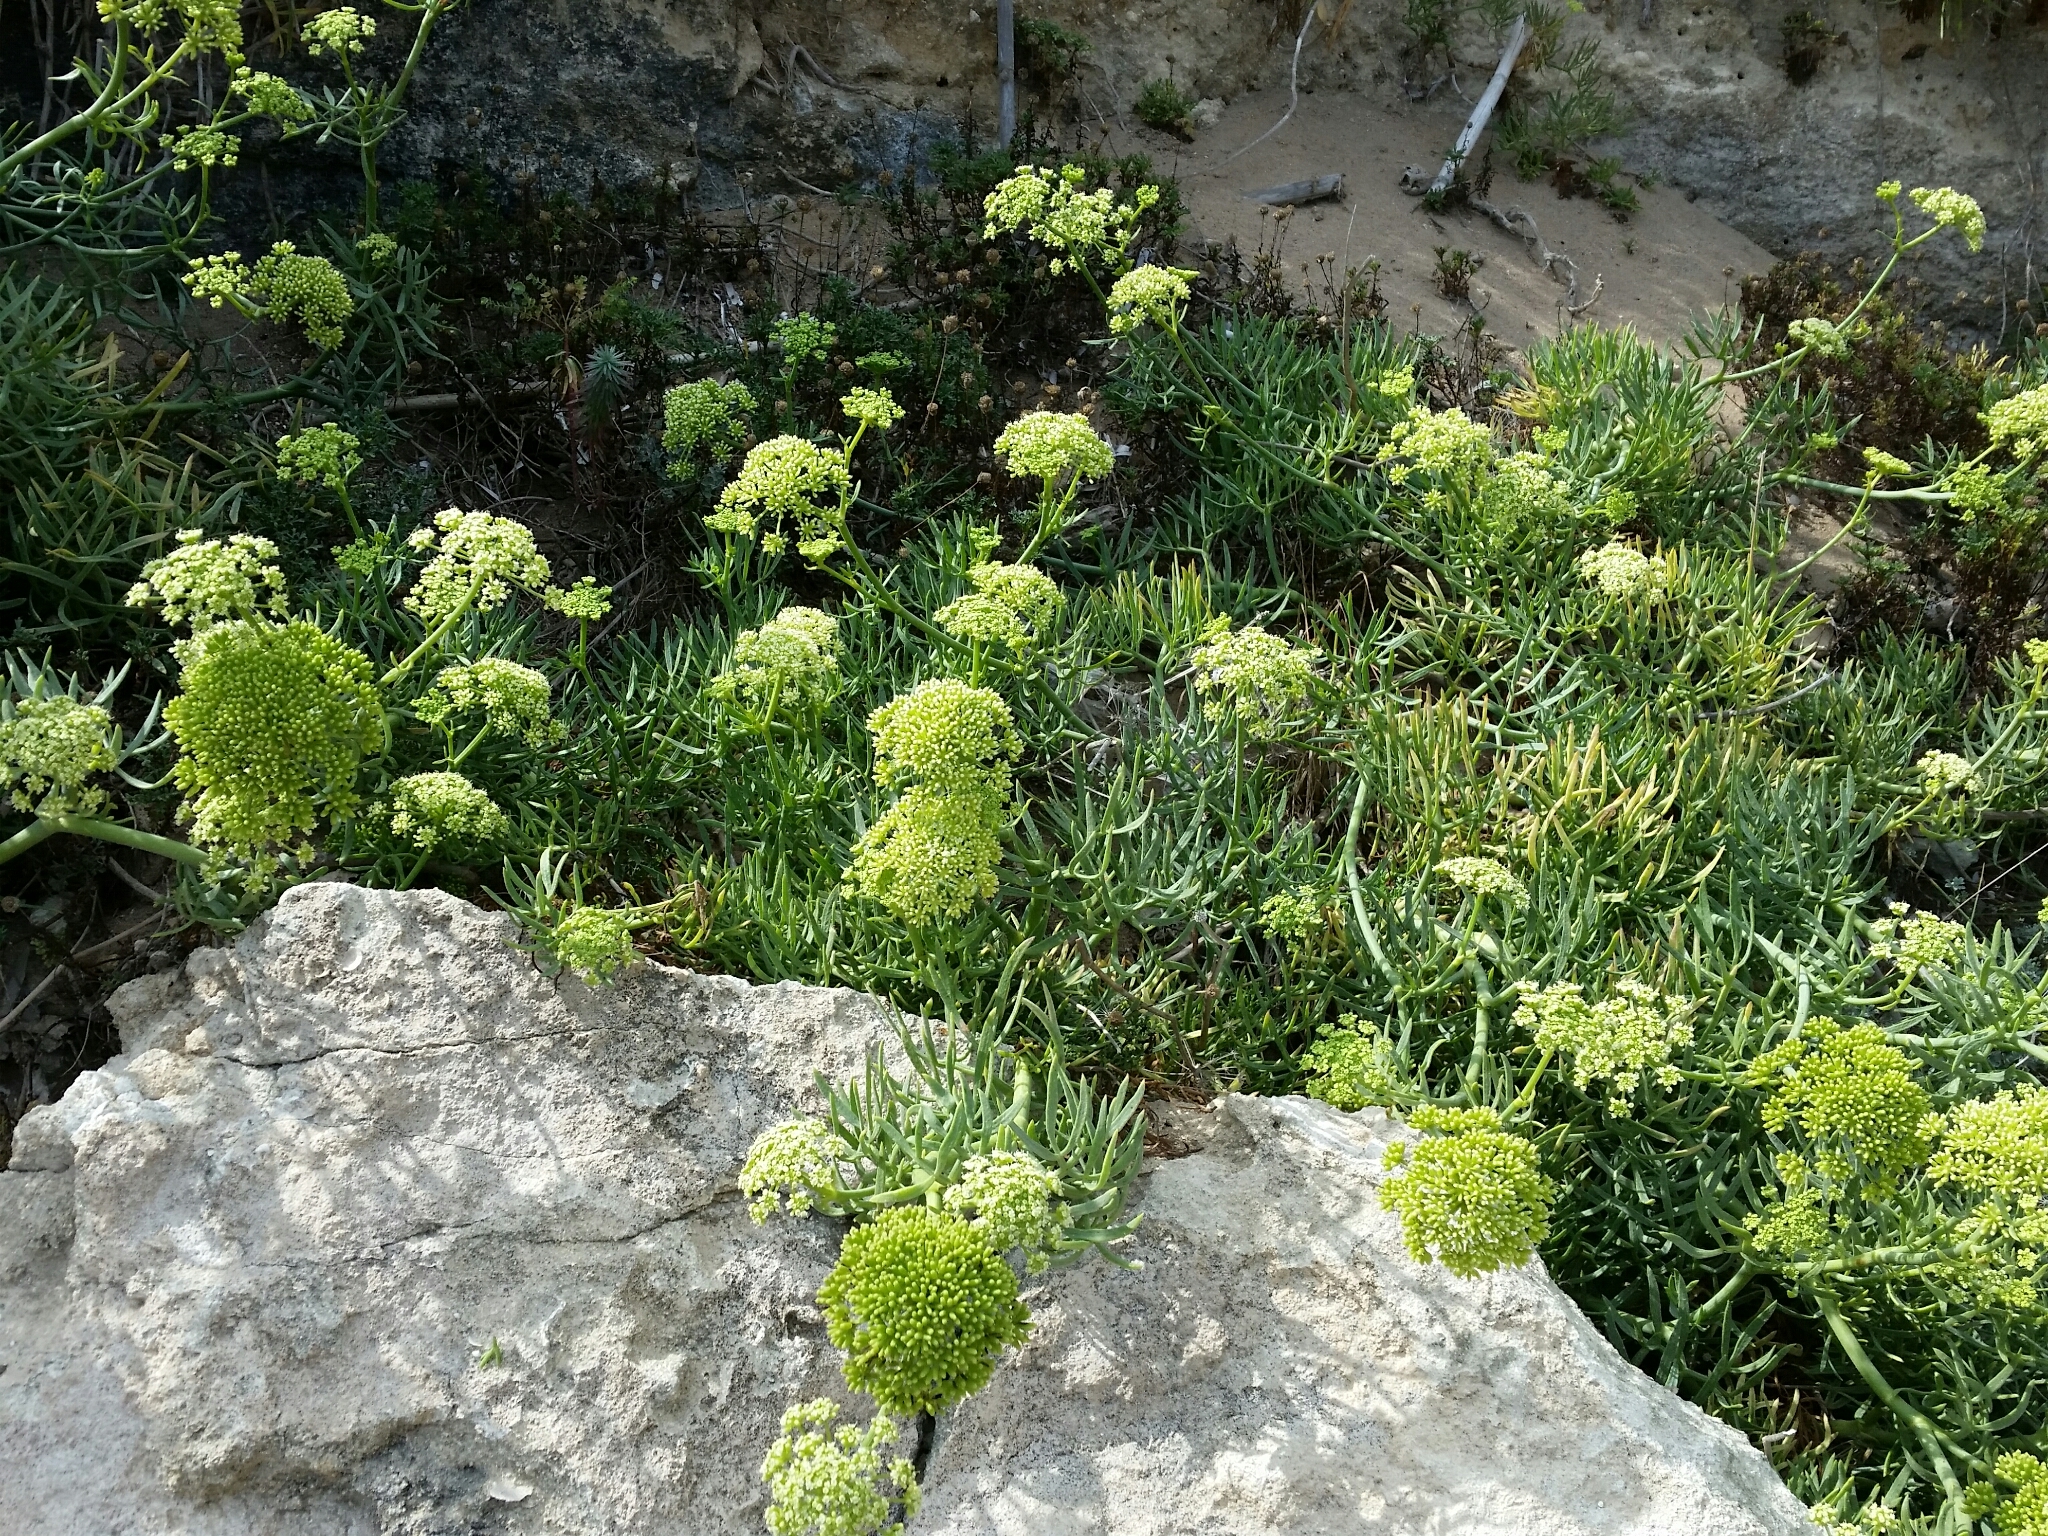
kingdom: Plantae
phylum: Tracheophyta
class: Magnoliopsida
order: Apiales
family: Apiaceae
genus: Crithmum
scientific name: Crithmum maritimum
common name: Rock samphire
